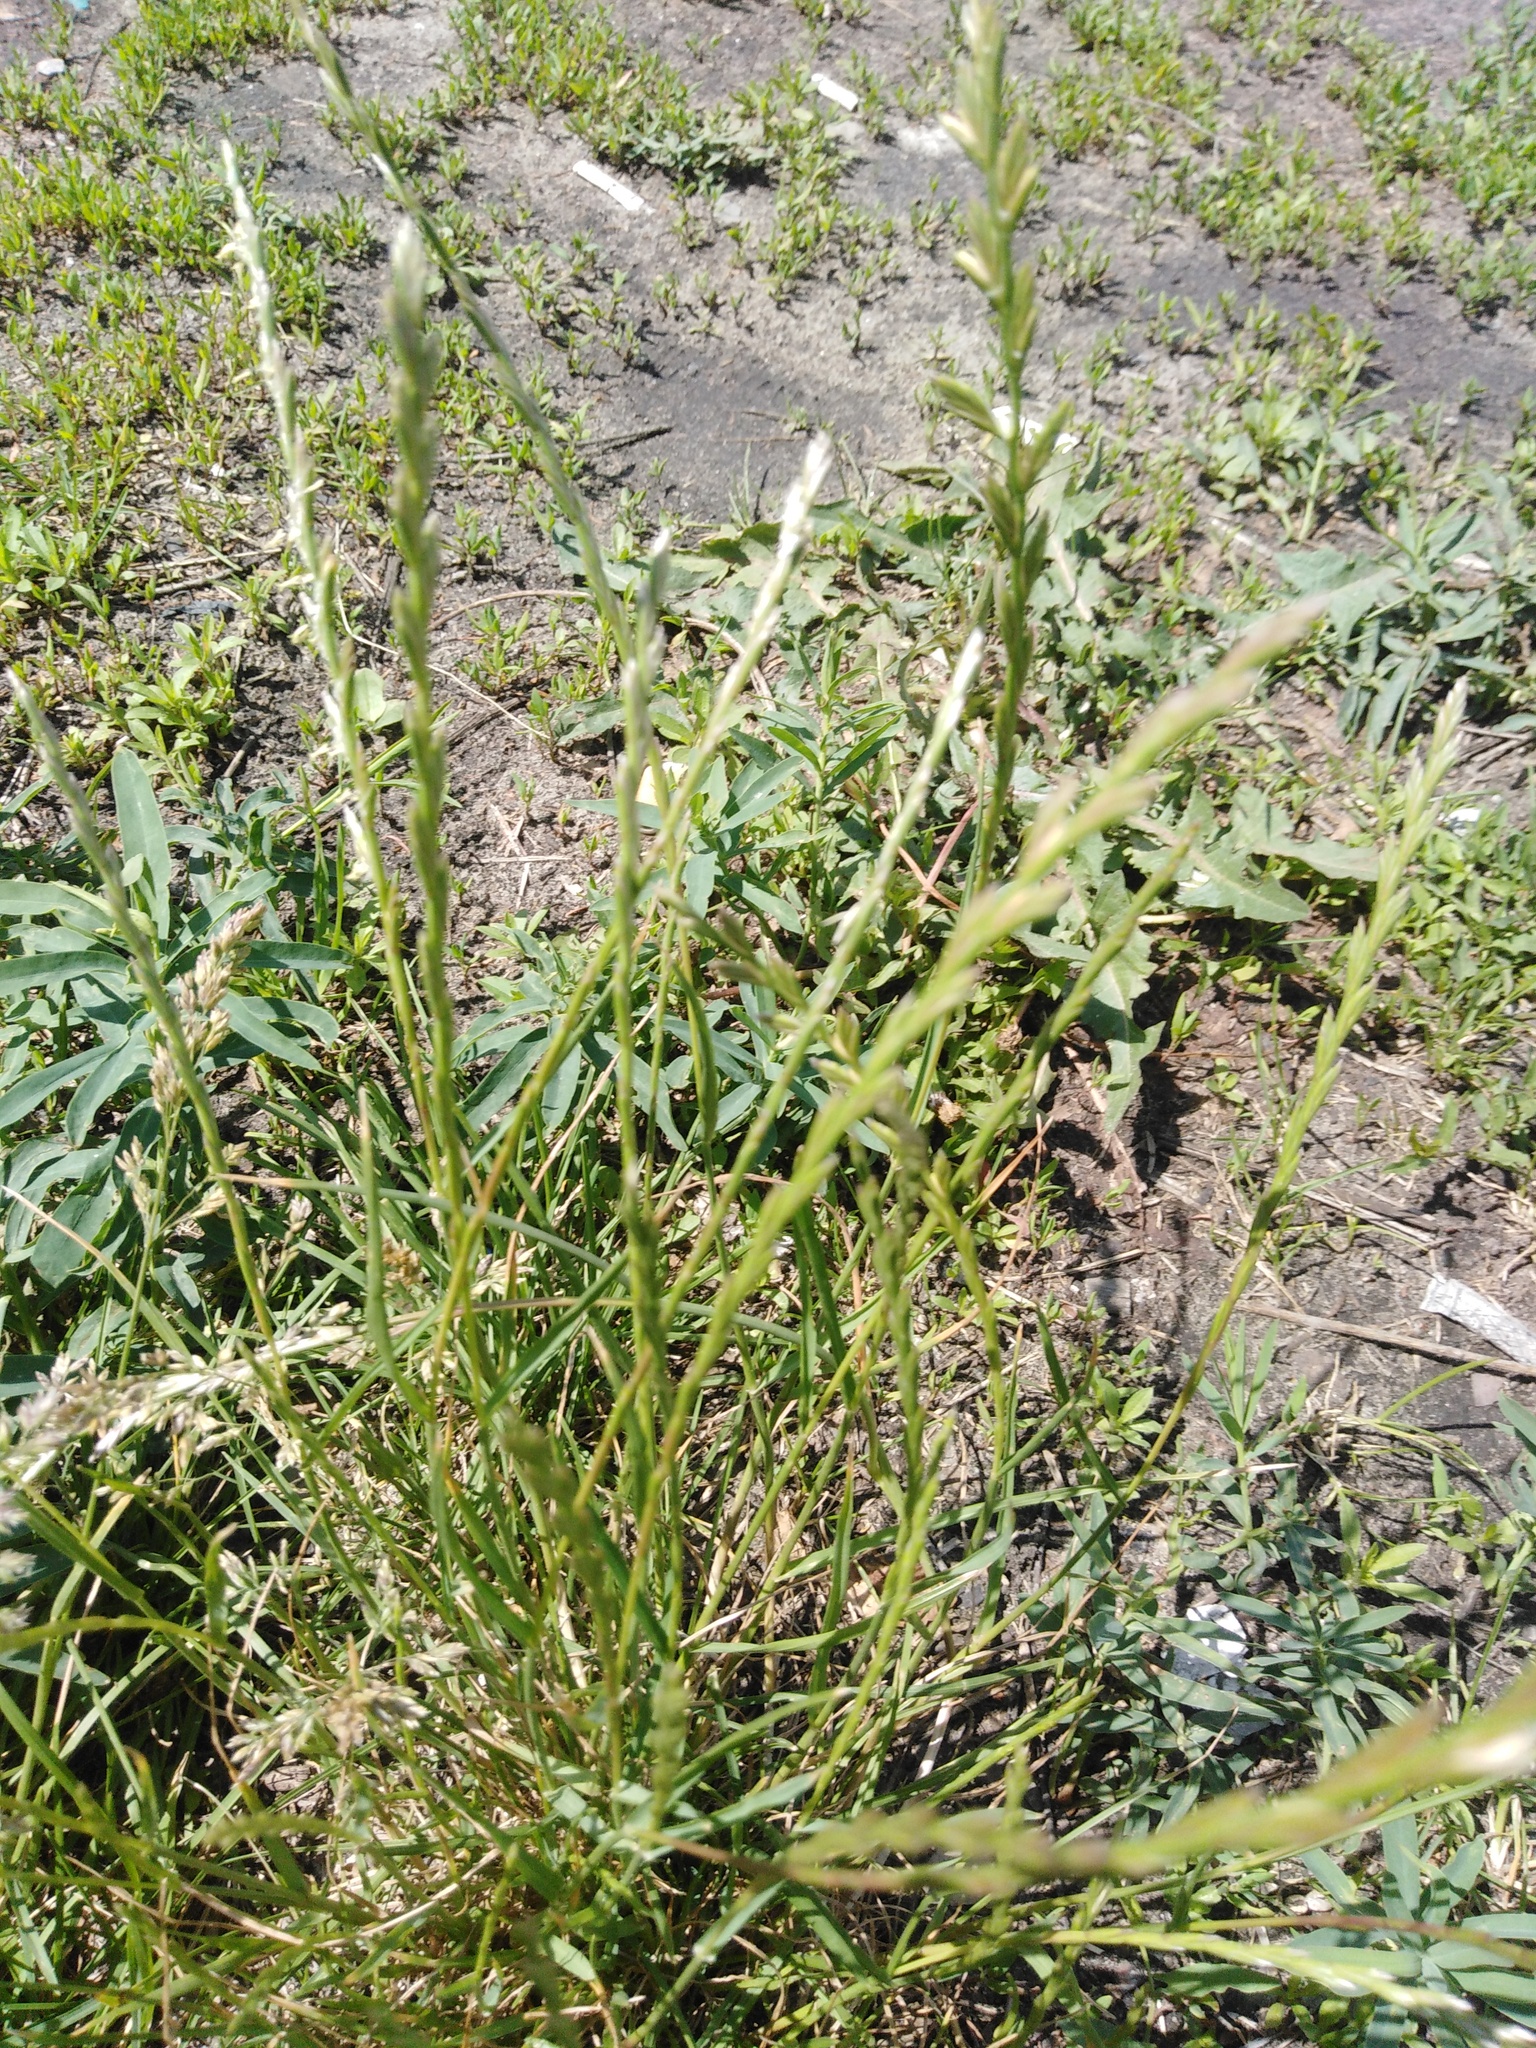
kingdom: Plantae
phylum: Tracheophyta
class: Liliopsida
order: Poales
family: Poaceae
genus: Lolium
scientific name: Lolium perenne
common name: Perennial ryegrass
